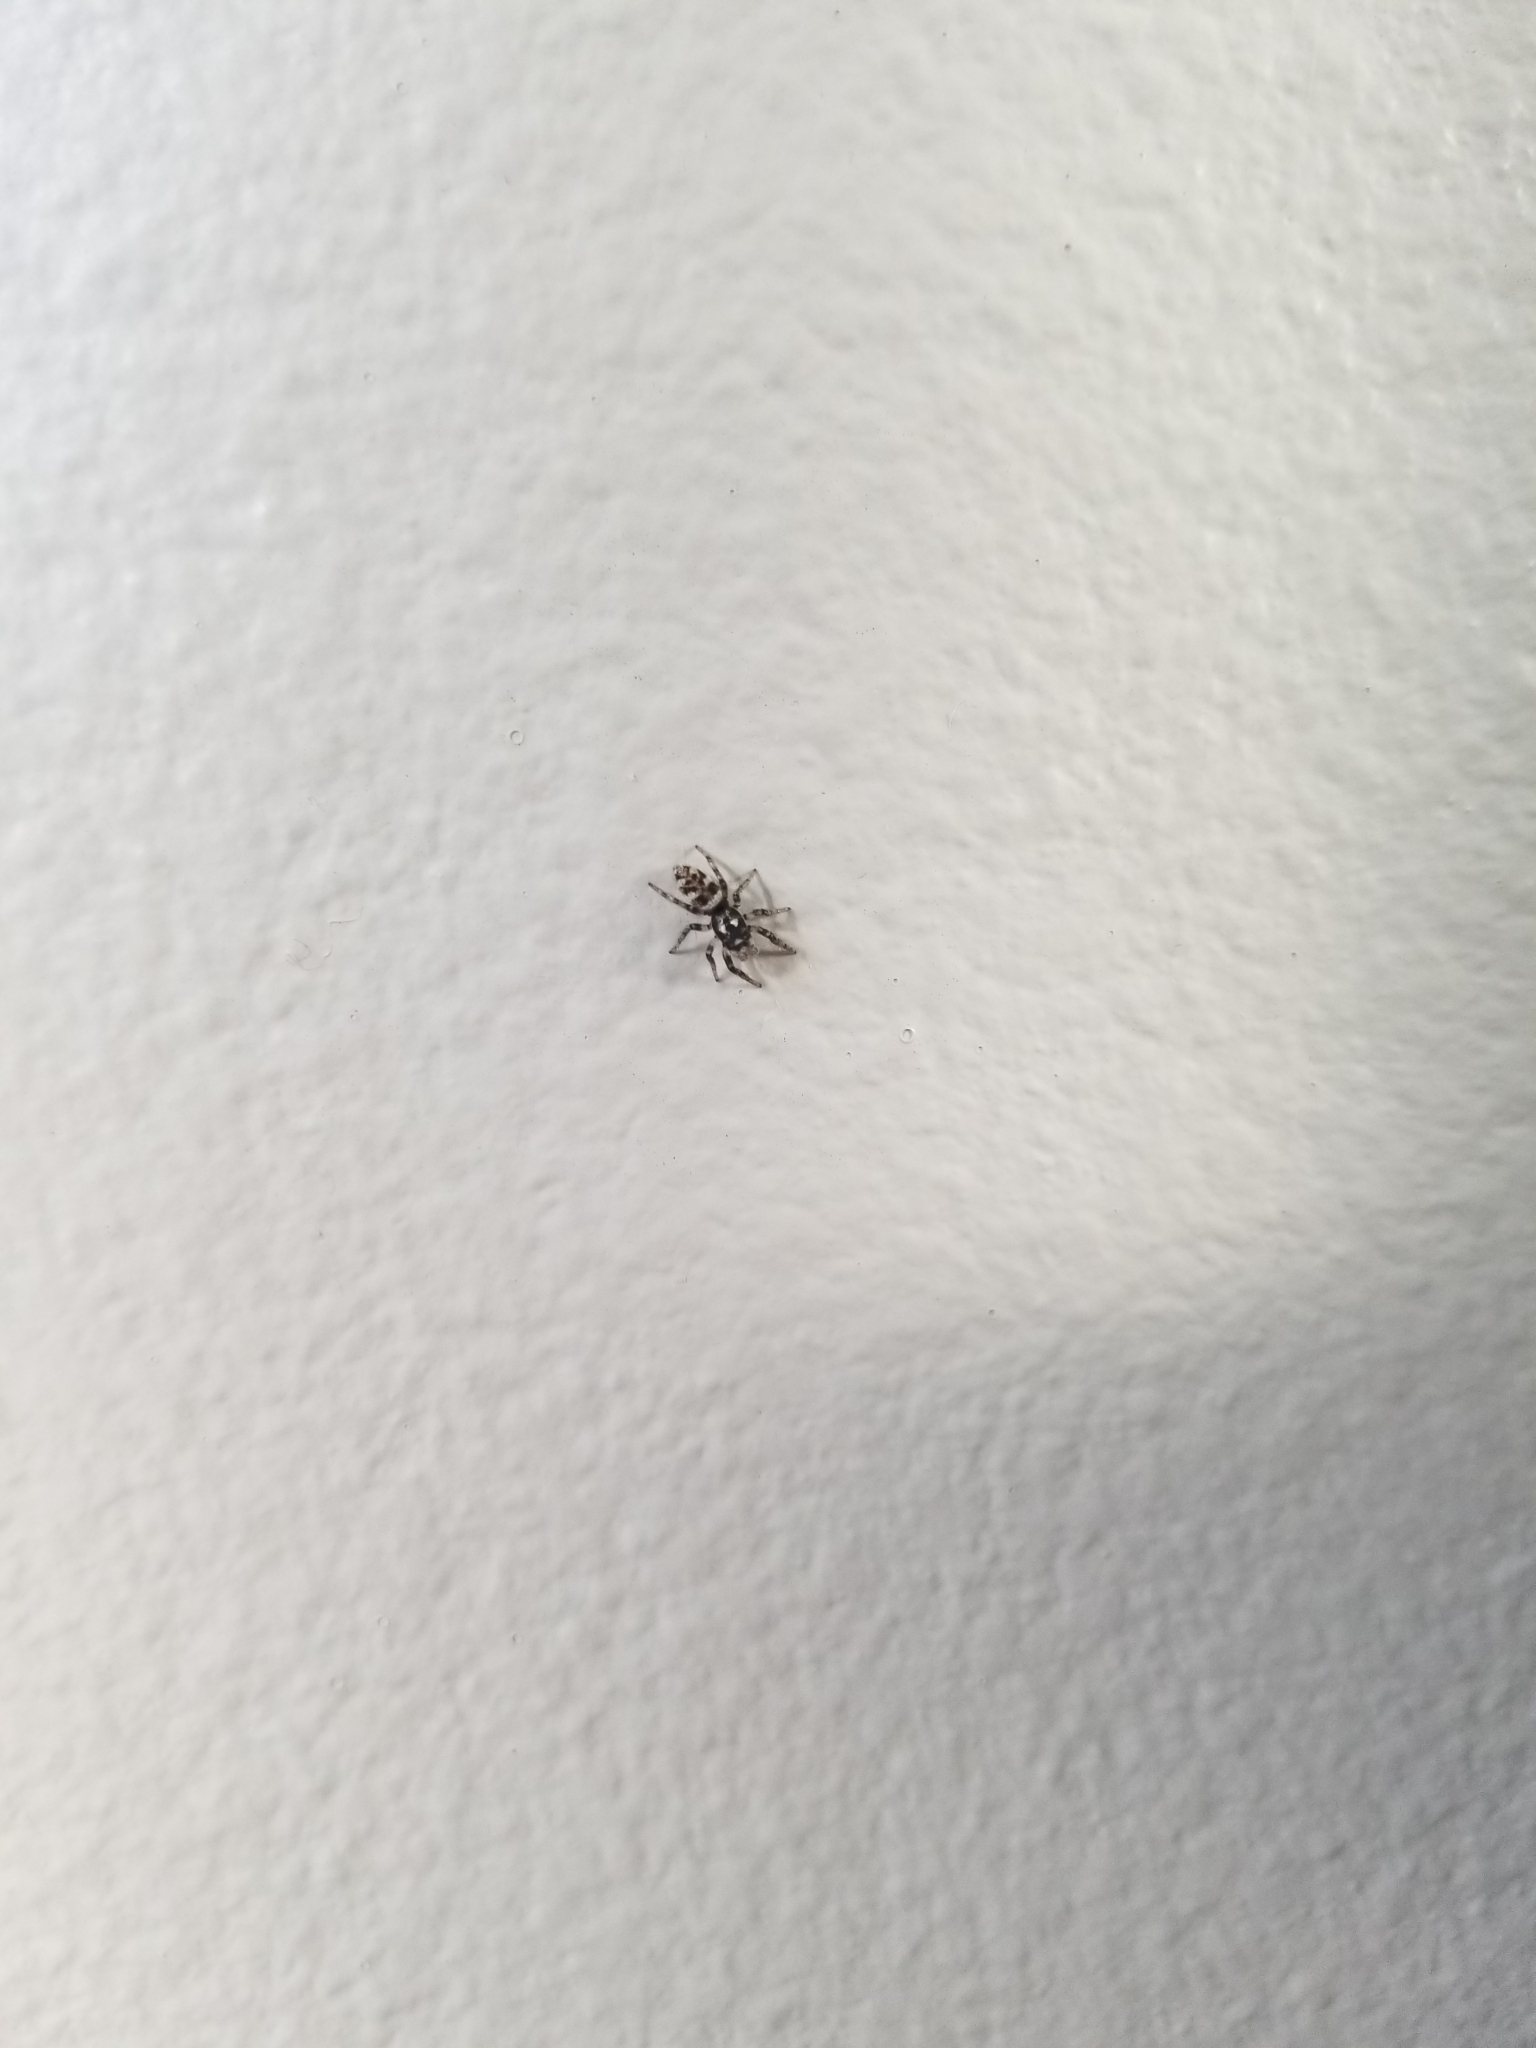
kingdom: Animalia
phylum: Arthropoda
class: Arachnida
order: Araneae
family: Salticidae
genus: Salticus
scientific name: Salticus scenicus
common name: Zebra jumper
